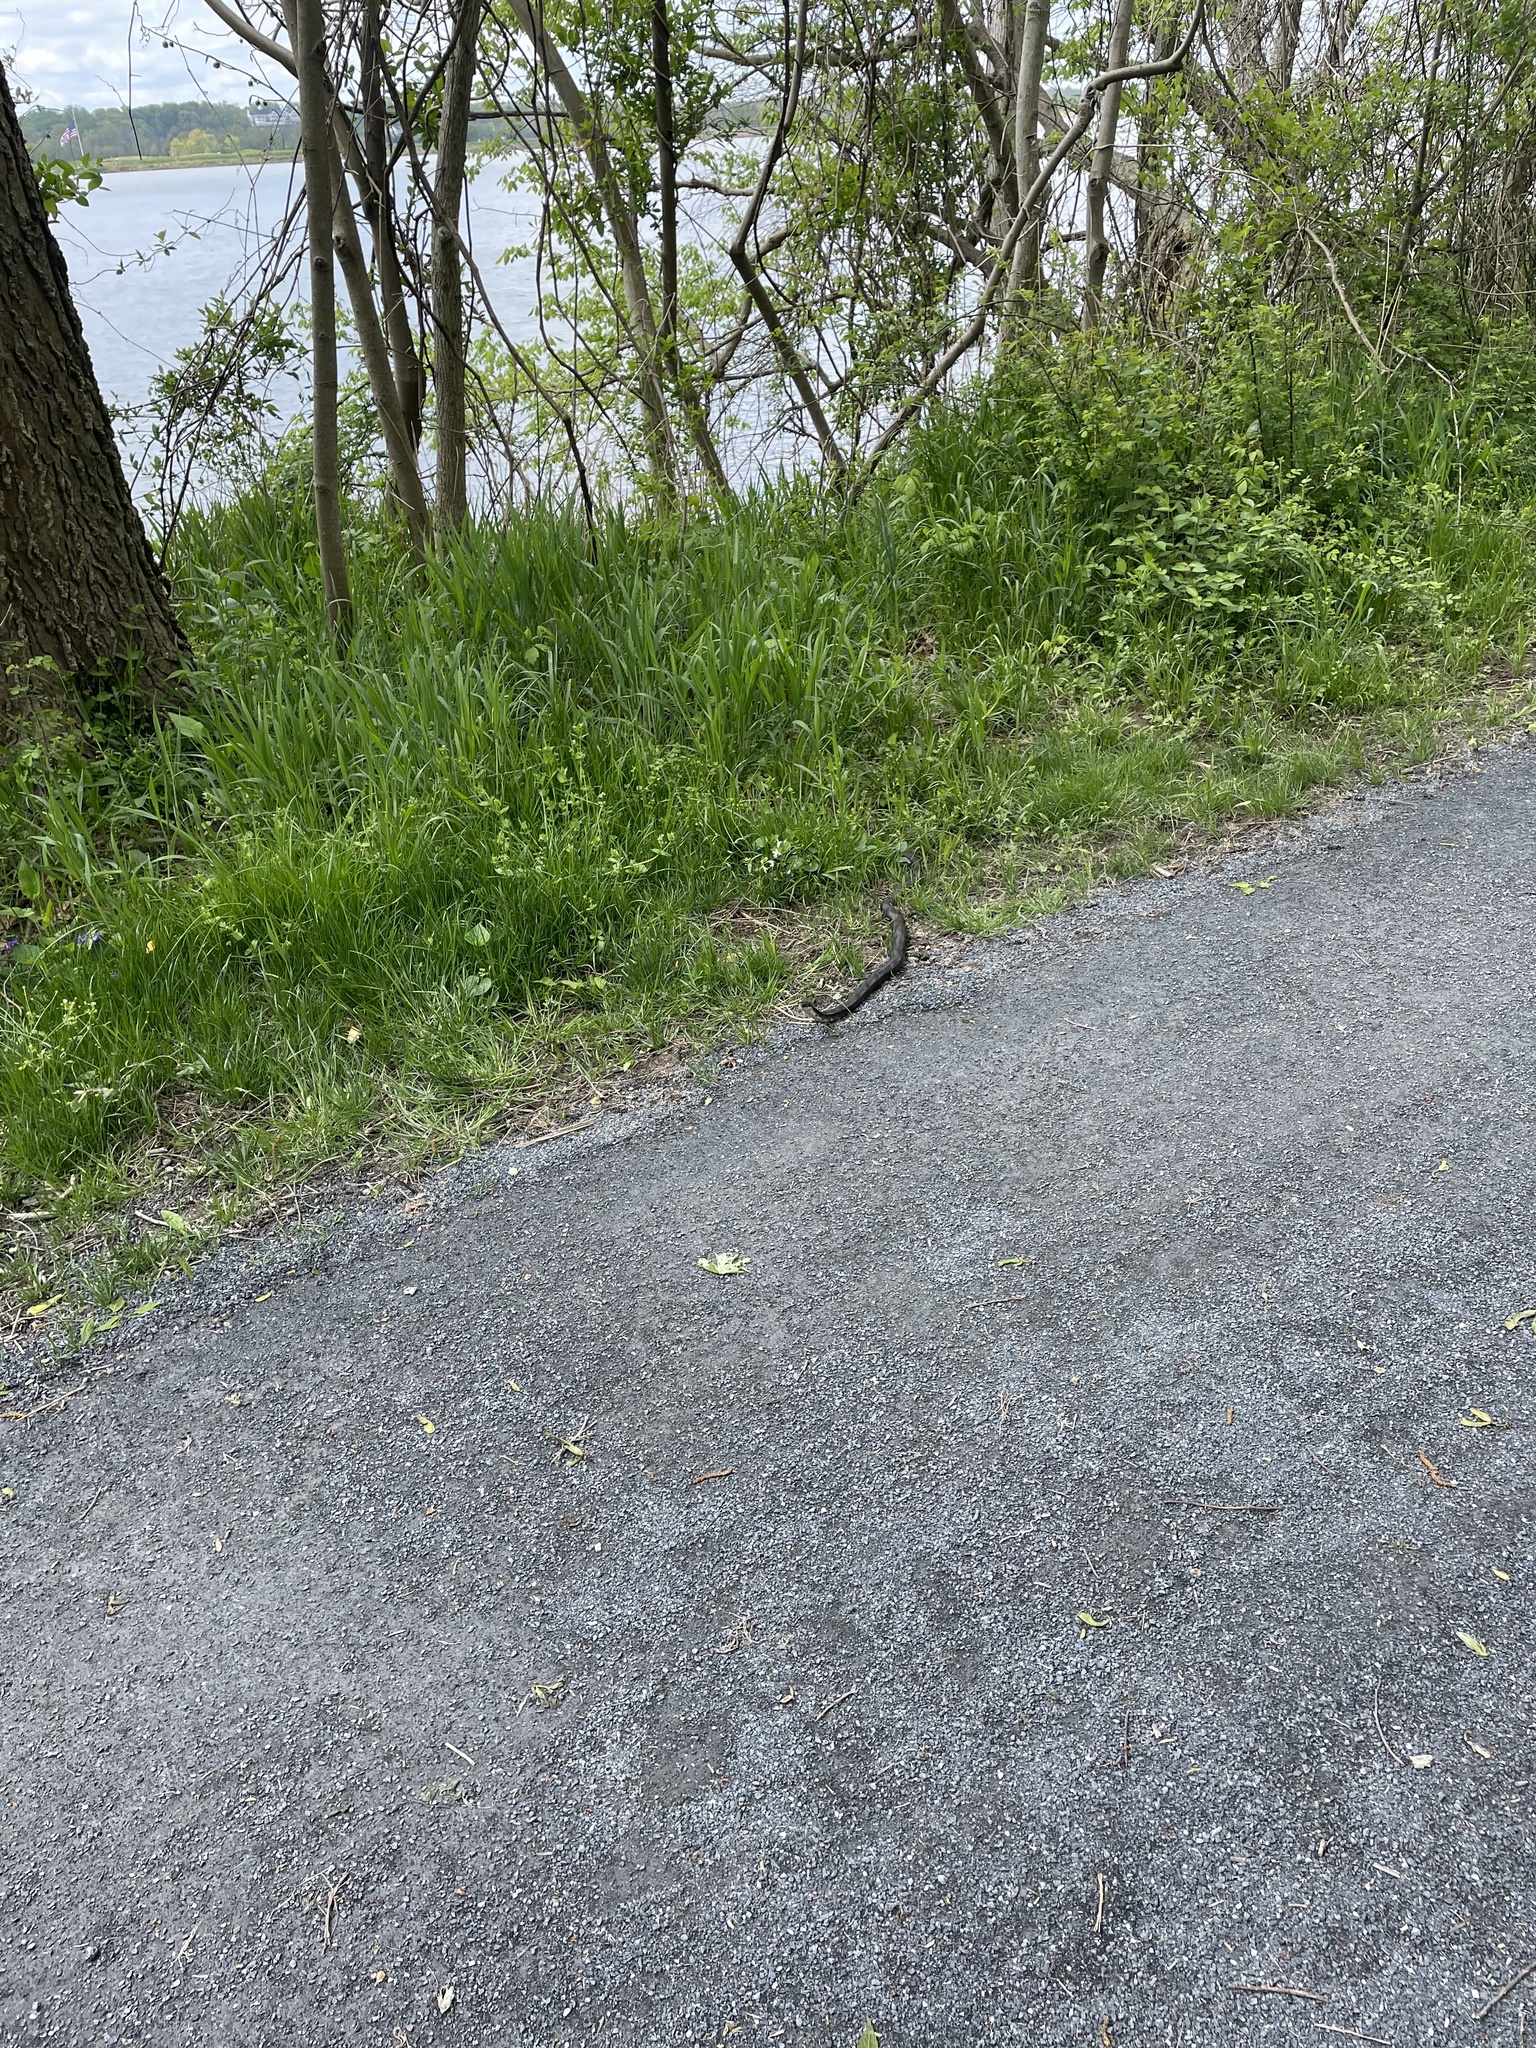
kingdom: Animalia
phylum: Chordata
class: Squamata
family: Colubridae
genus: Pantherophis
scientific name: Pantherophis alleghaniensis
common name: Eastern rat snake
